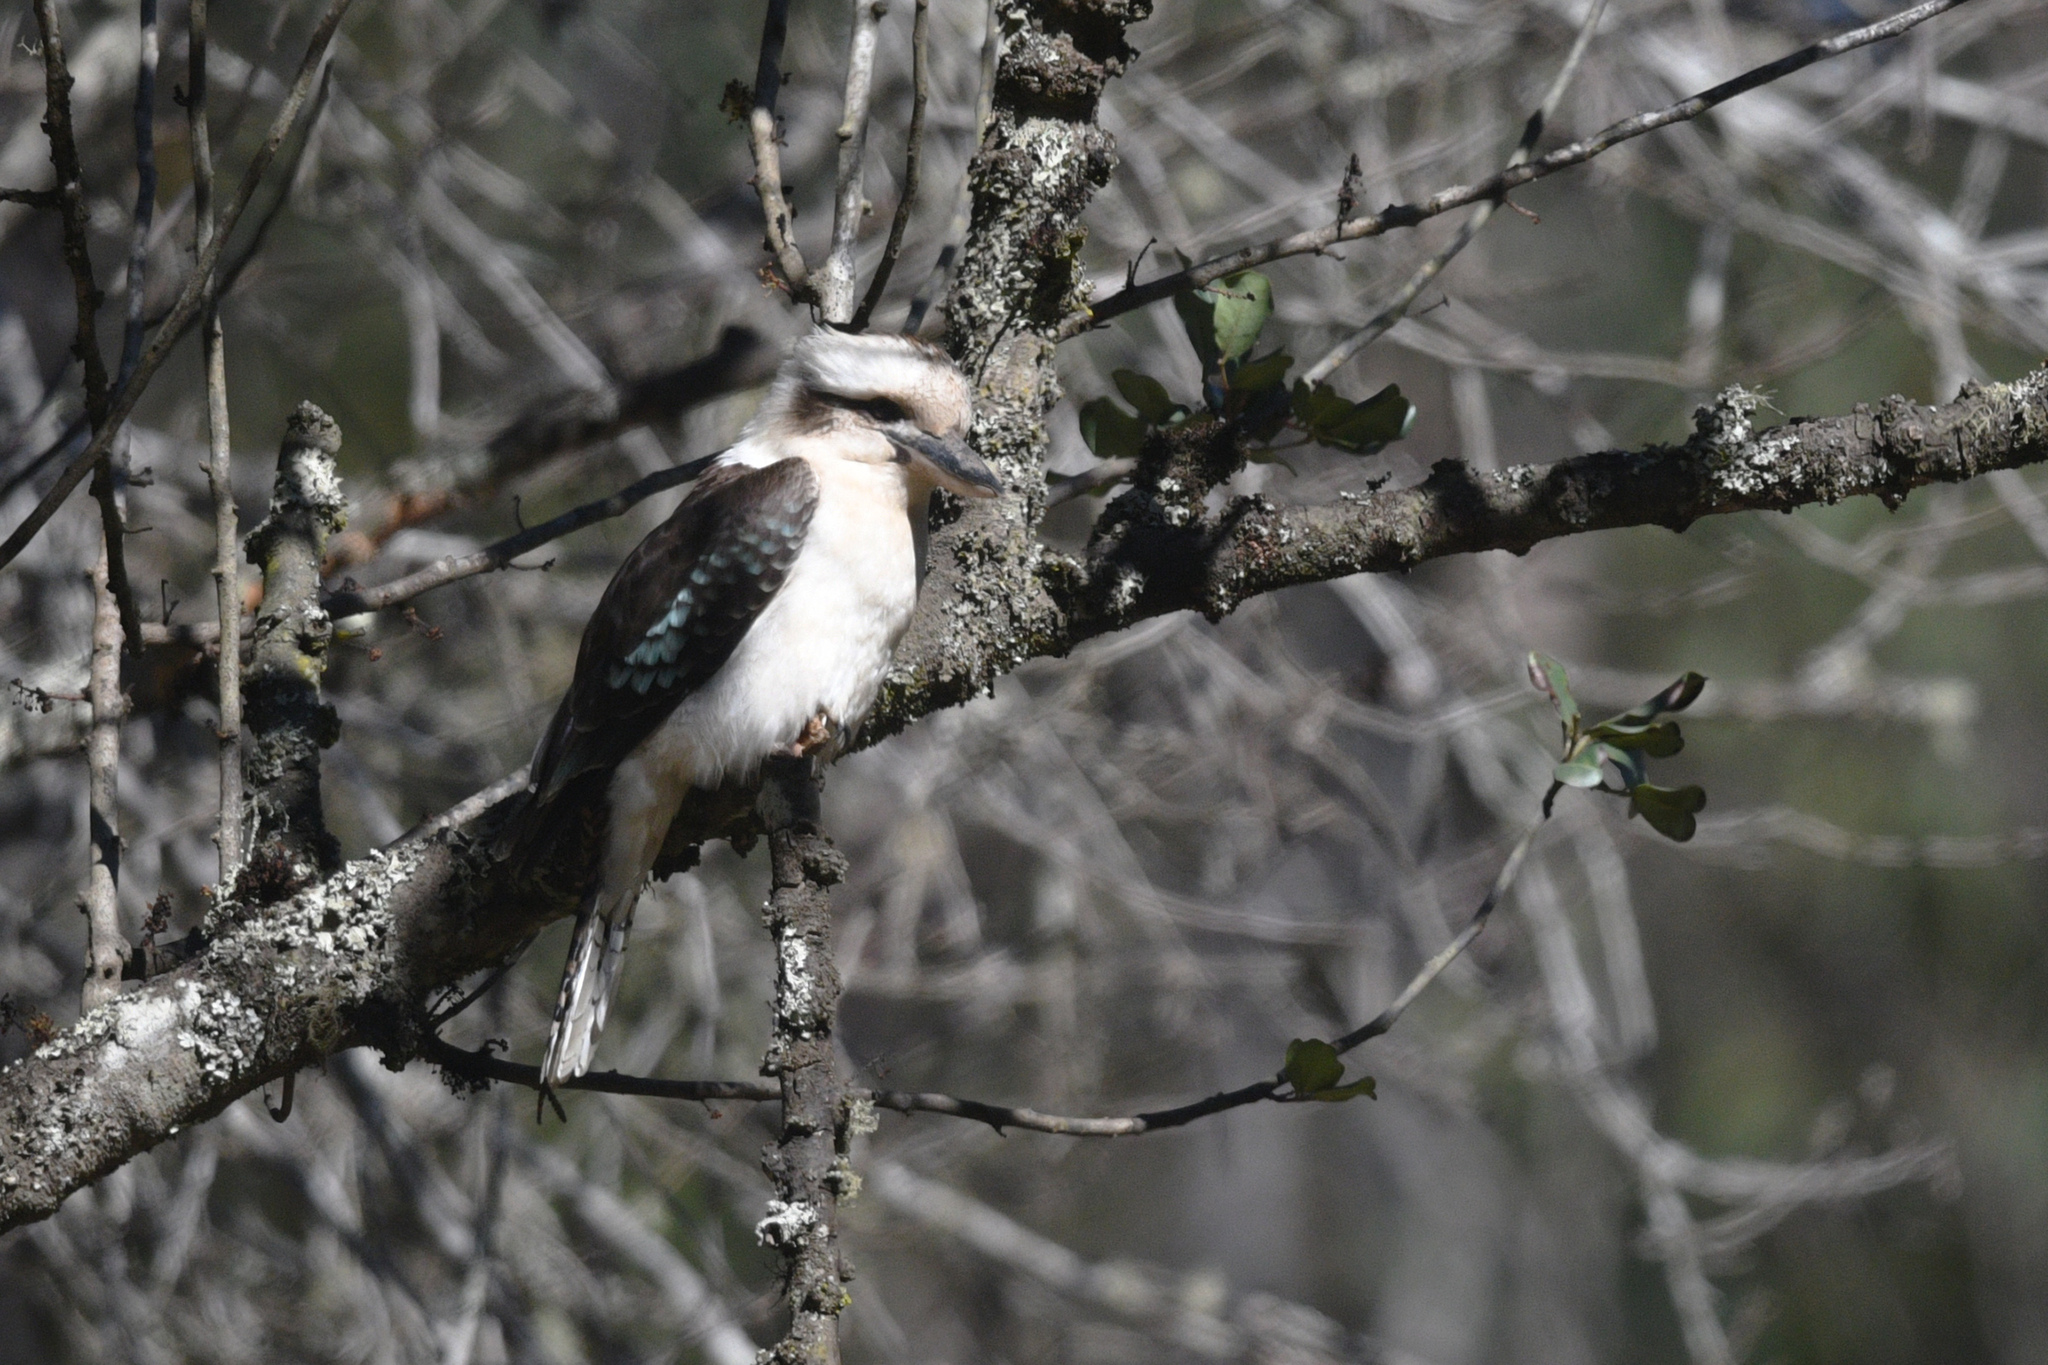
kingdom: Animalia
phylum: Chordata
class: Aves
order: Coraciiformes
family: Alcedinidae
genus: Dacelo
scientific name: Dacelo novaeguineae
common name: Laughing kookaburra
